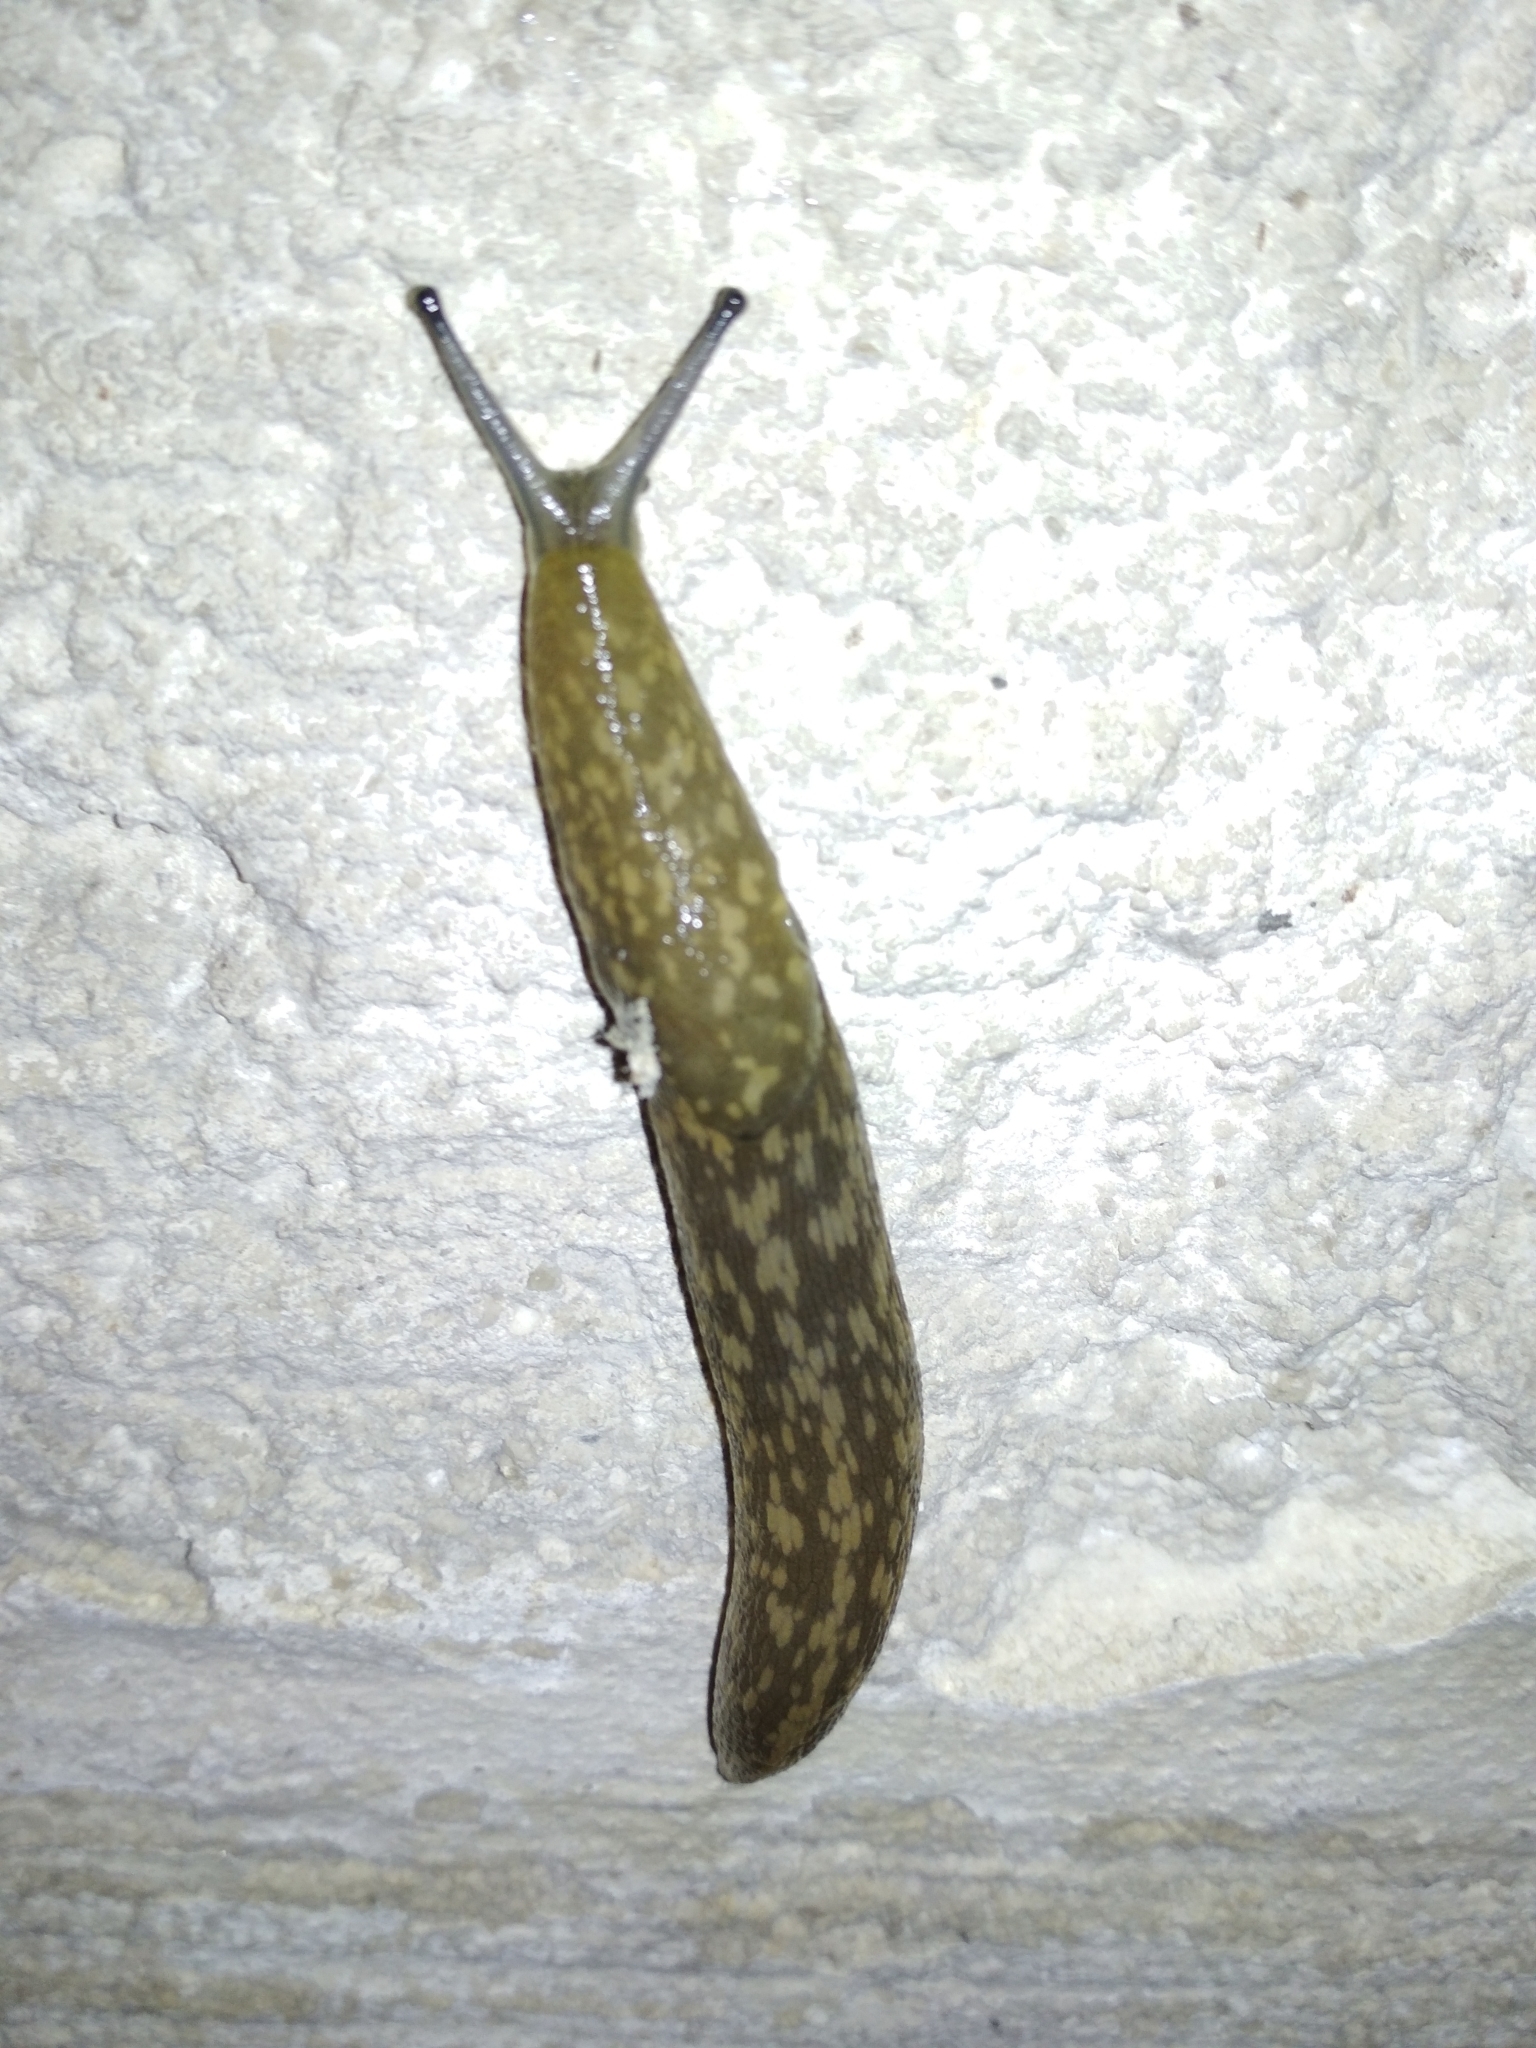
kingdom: Animalia
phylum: Mollusca
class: Gastropoda
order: Stylommatophora
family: Limacidae
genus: Limacus
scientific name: Limacus flavus
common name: Yellow gardenslug
